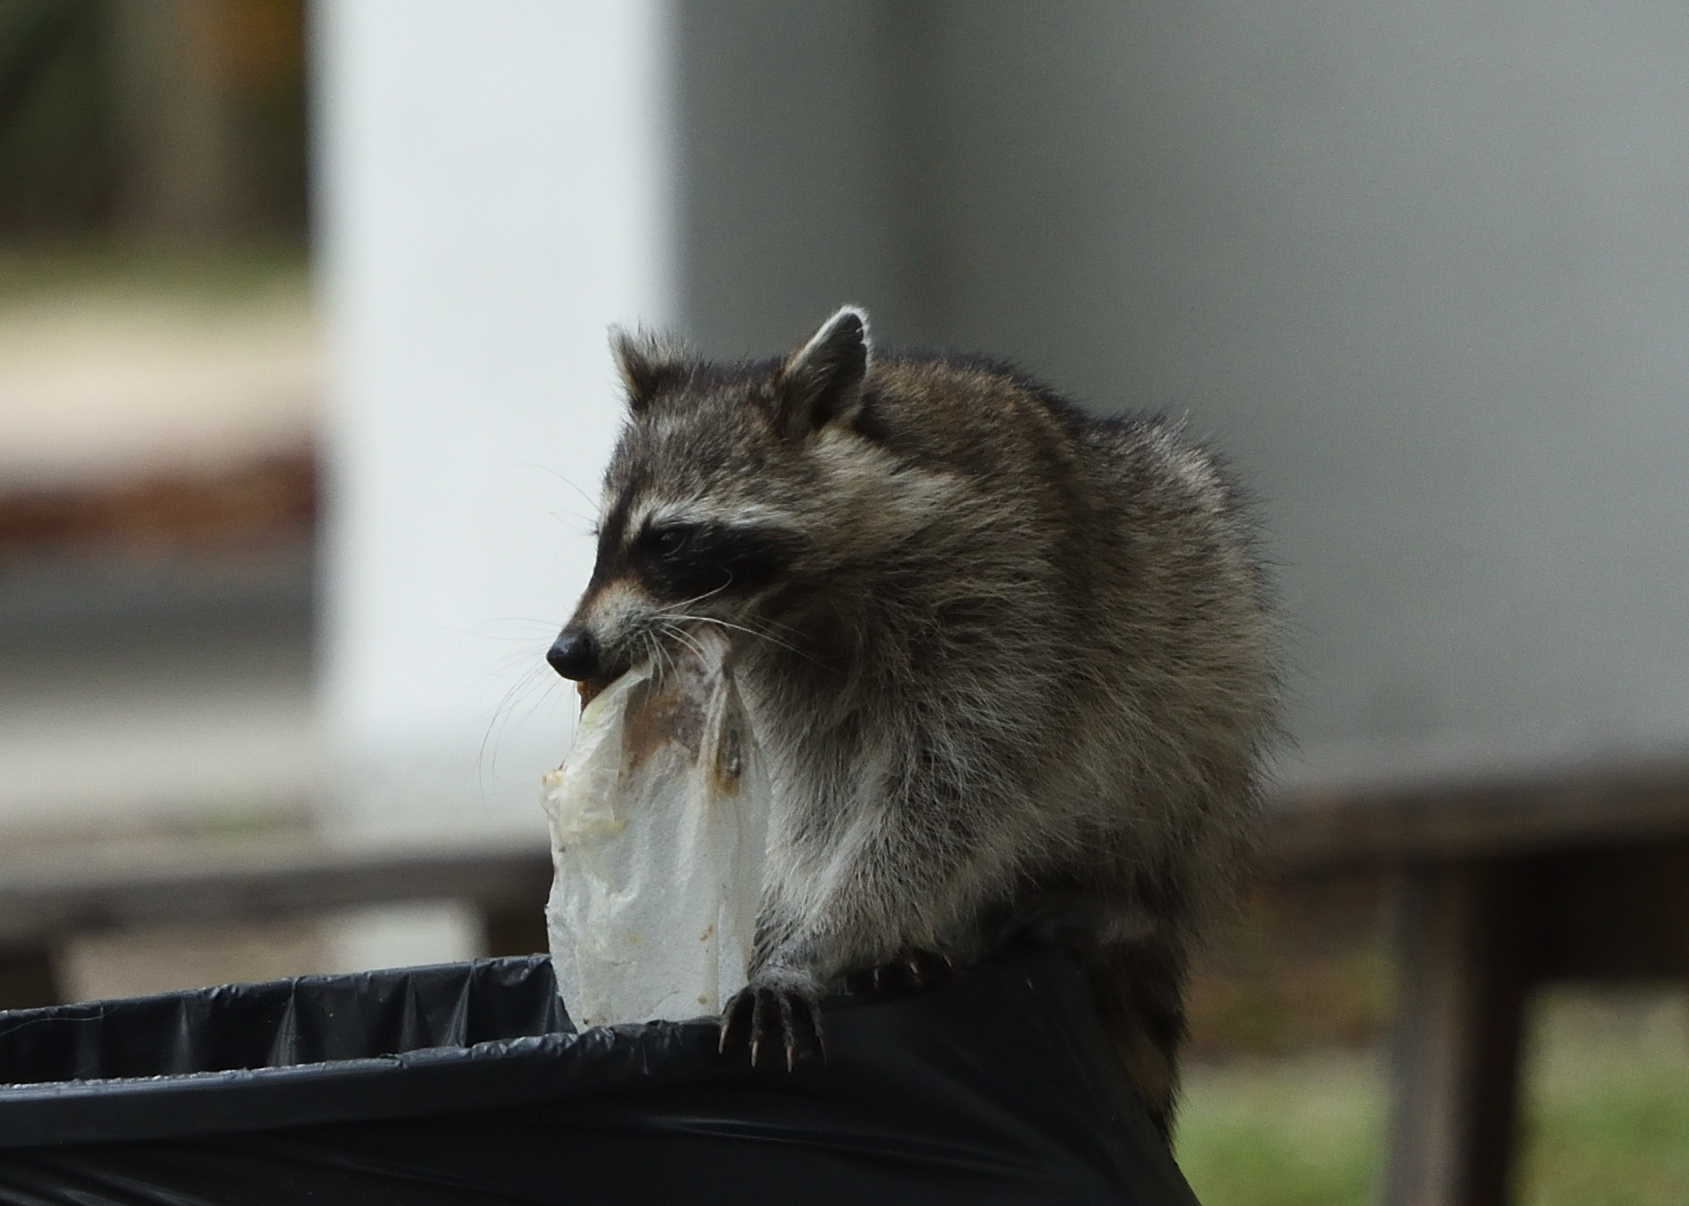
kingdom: Animalia
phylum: Chordata
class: Mammalia
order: Carnivora
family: Procyonidae
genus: Procyon
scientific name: Procyon lotor
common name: Raccoon
